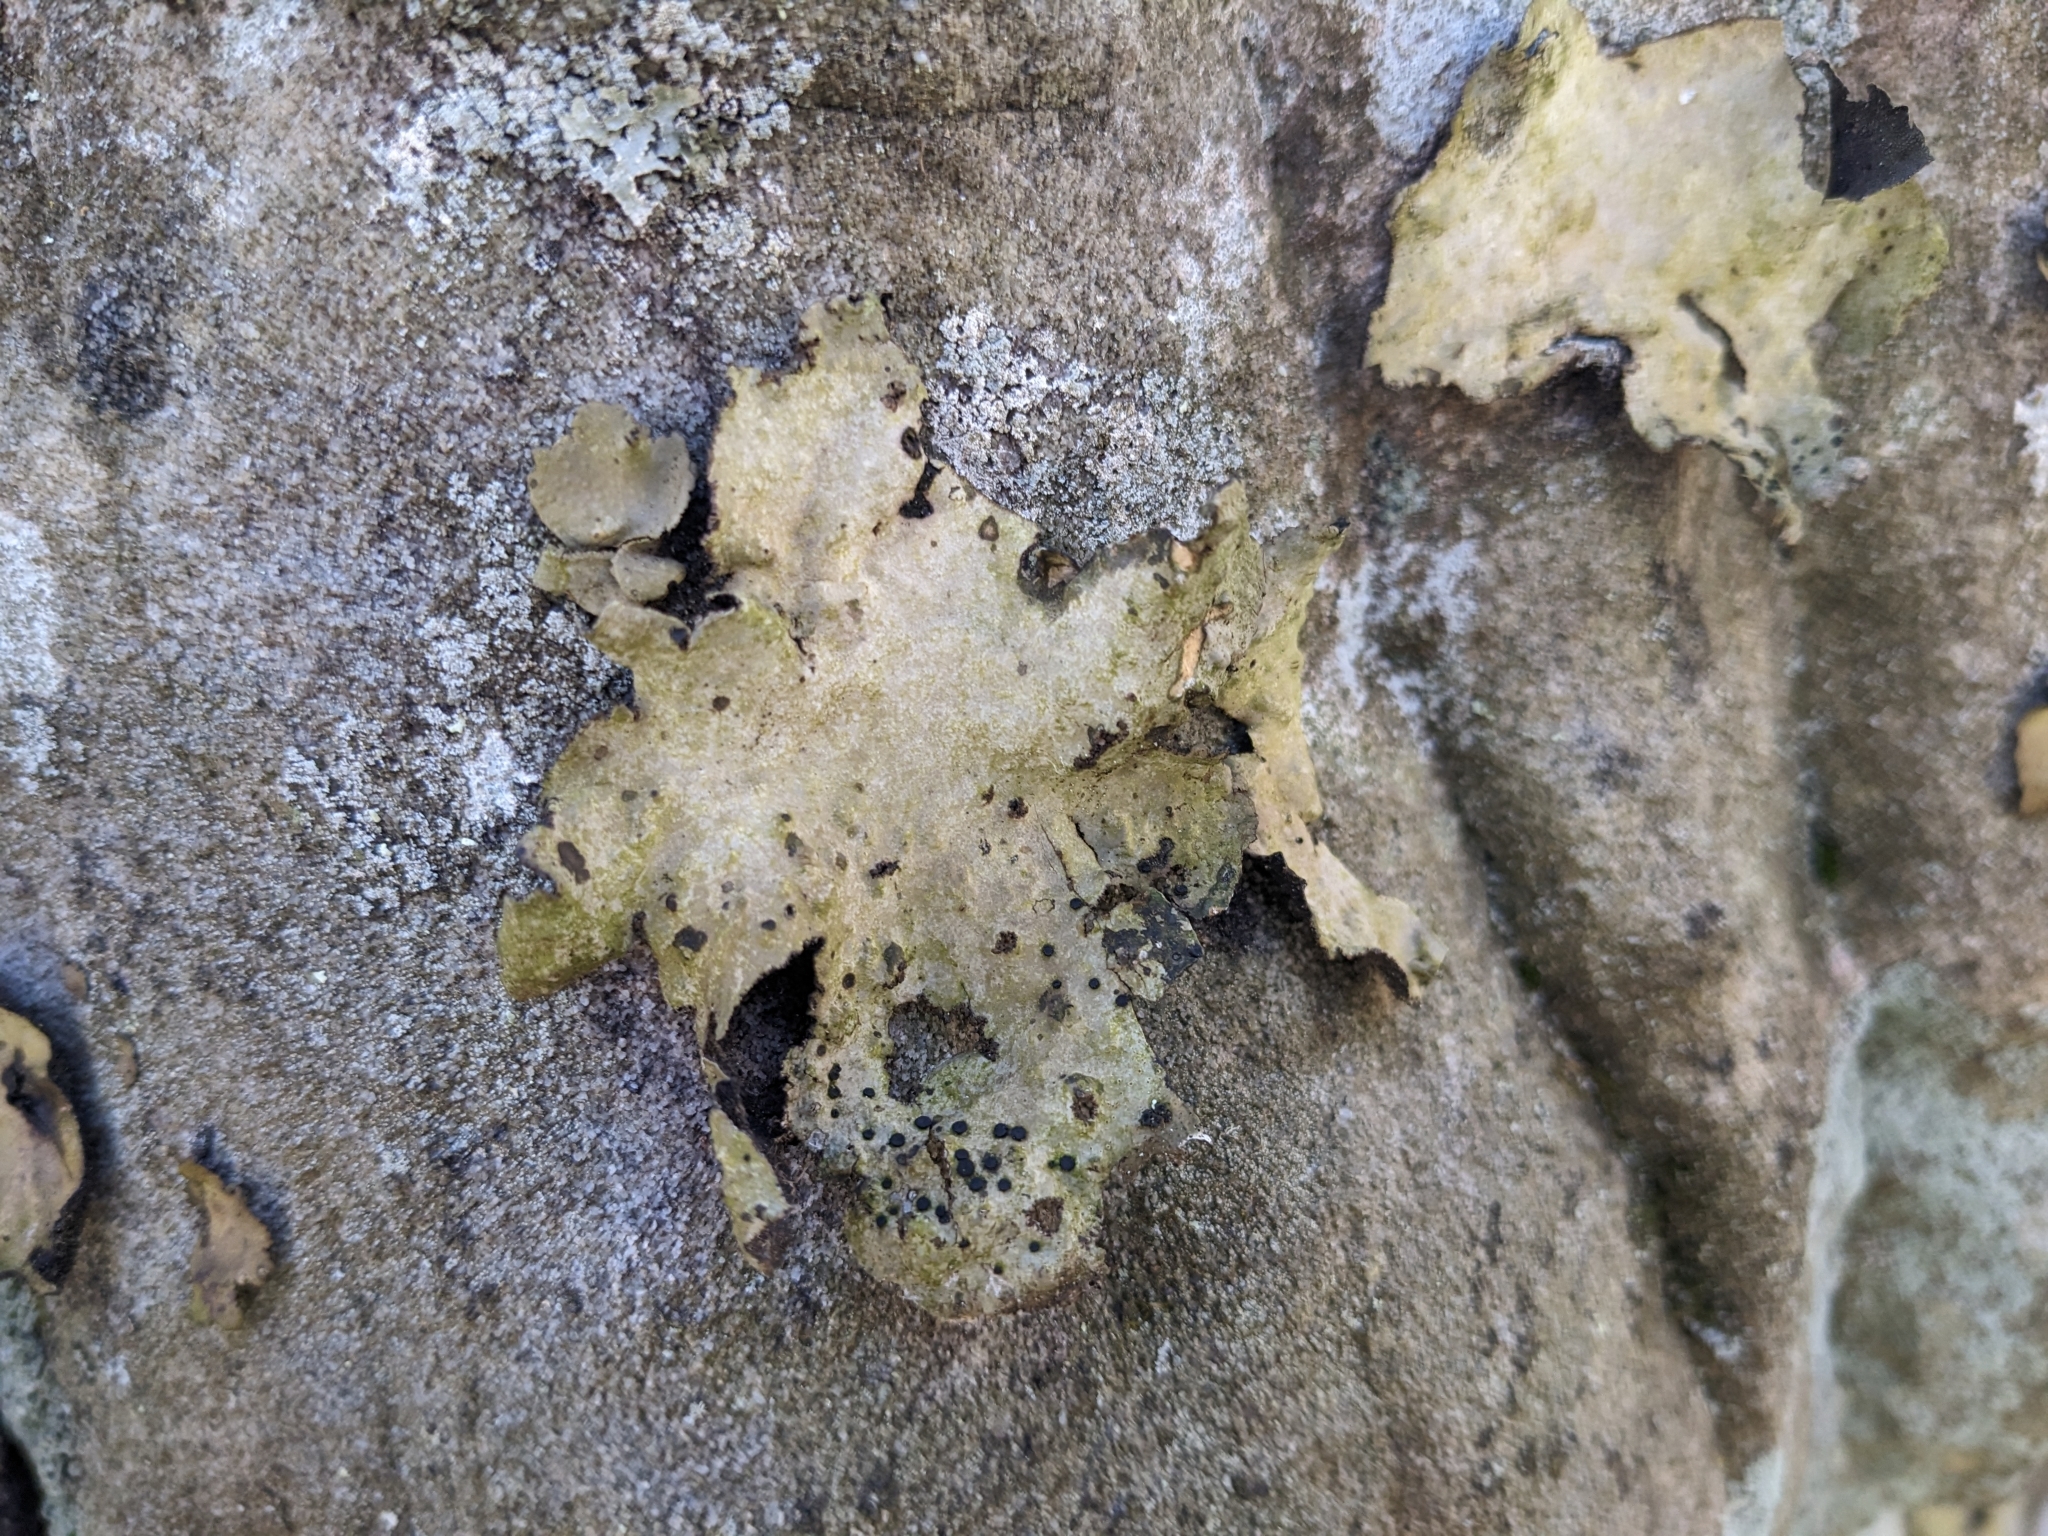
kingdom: Fungi
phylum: Ascomycota
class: Lecanoromycetes
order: Umbilicariales
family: Umbilicariaceae
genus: Umbilicaria
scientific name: Umbilicaria mammulata
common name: Smooth rock tripe
